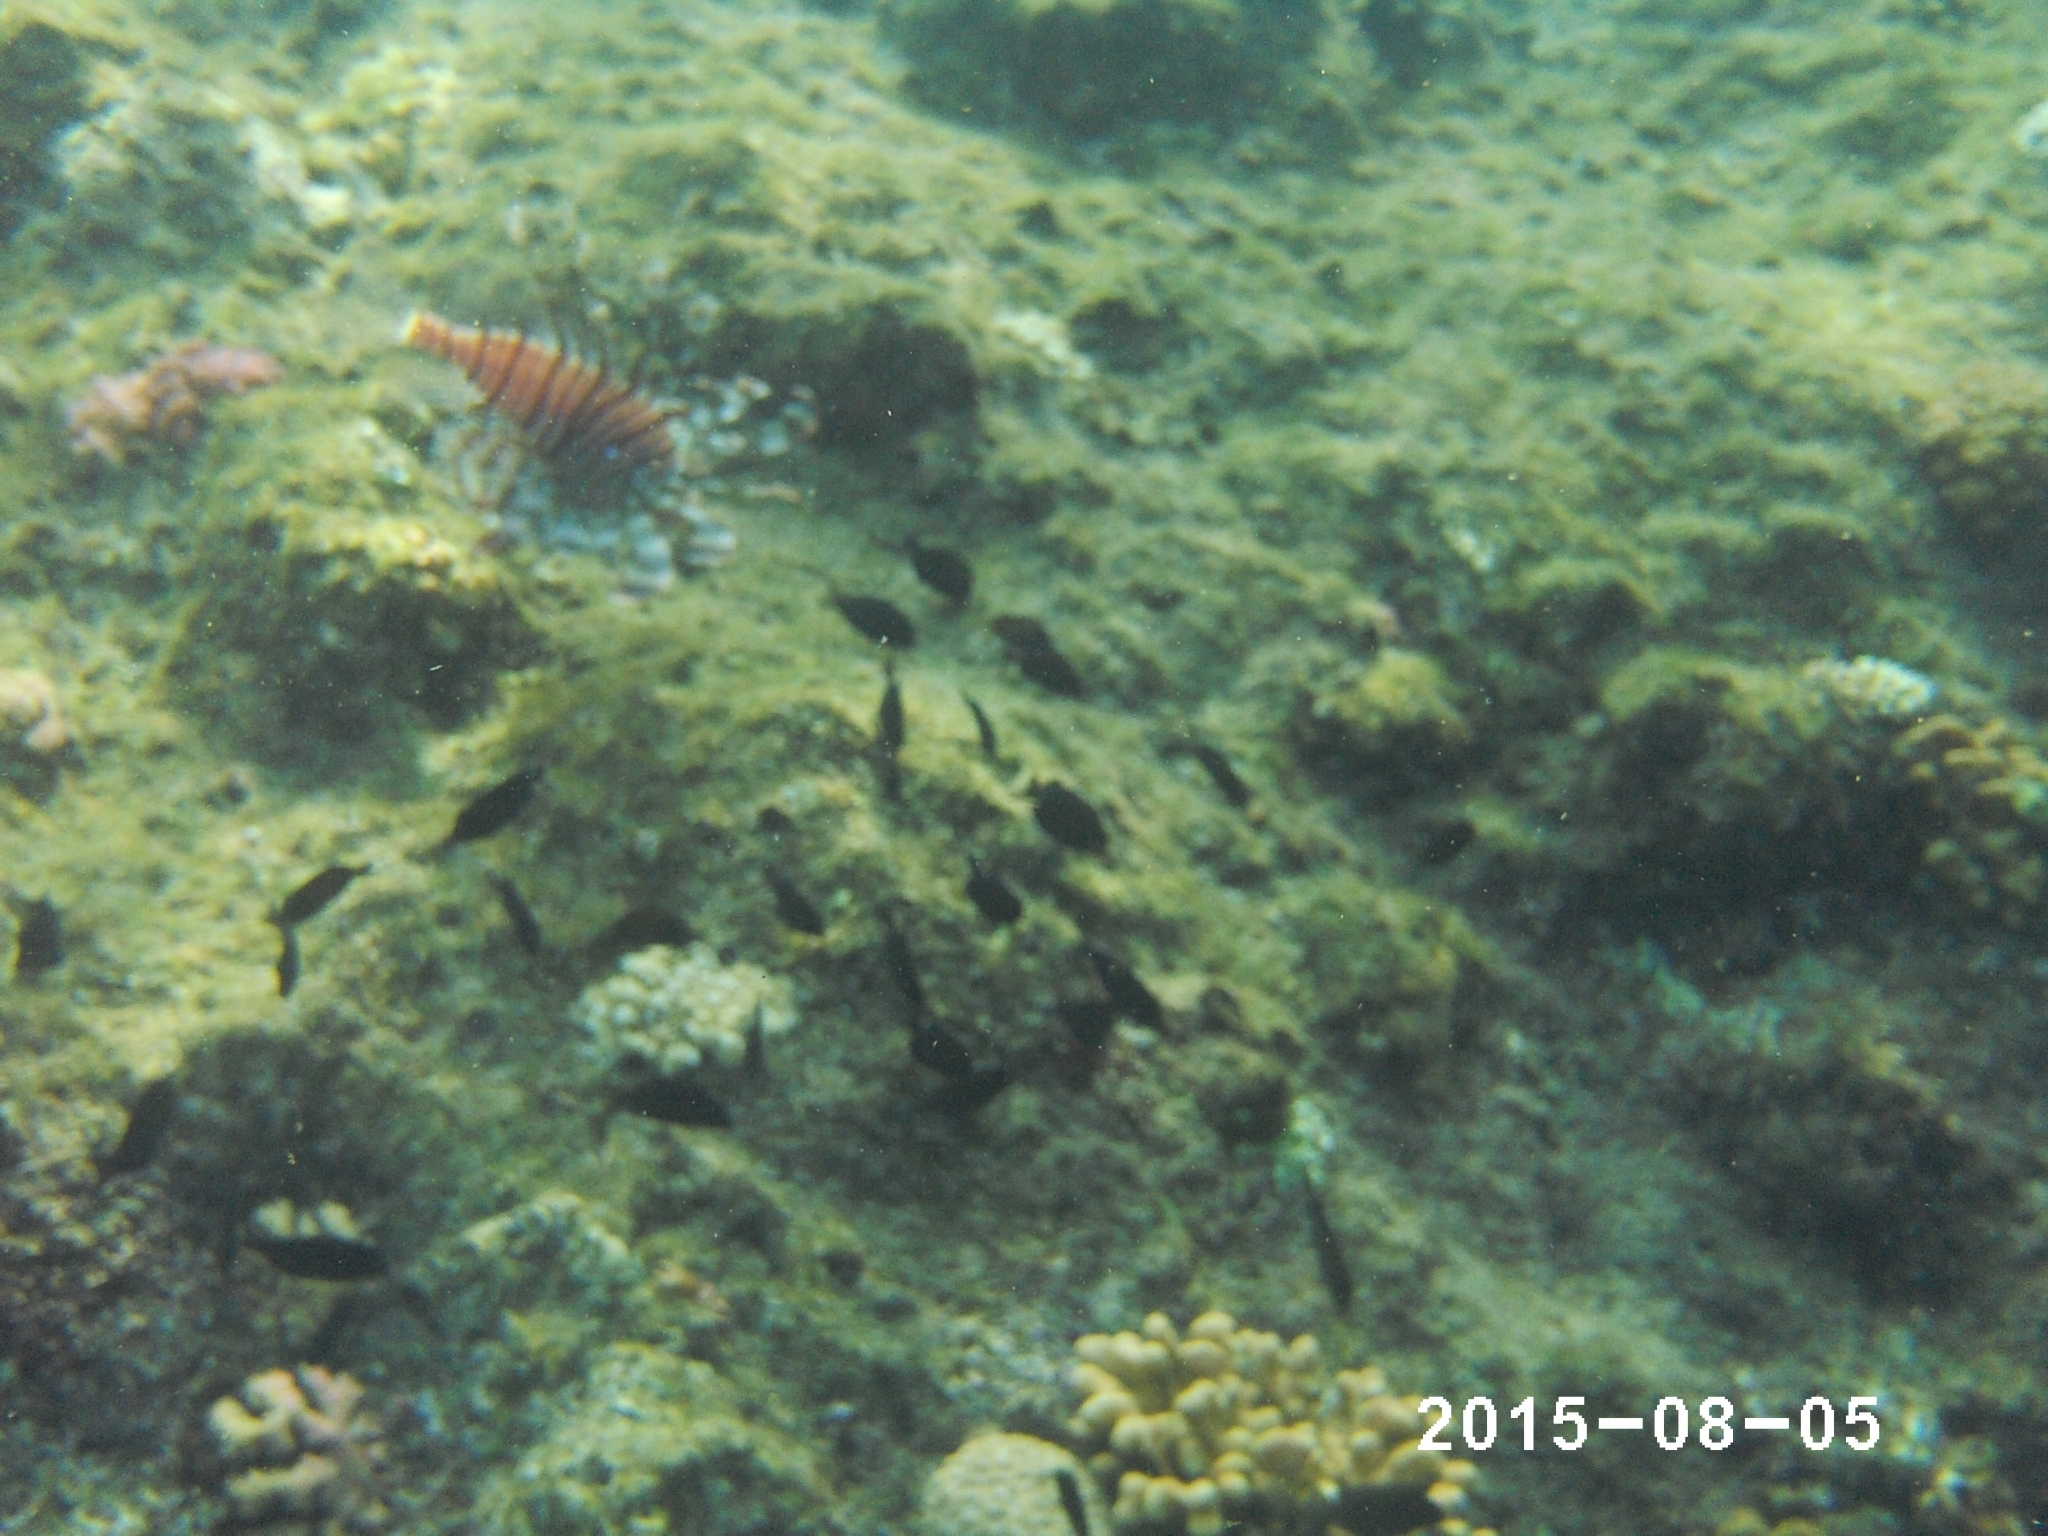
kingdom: Animalia
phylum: Chordata
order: Scorpaeniformes
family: Scorpaenidae
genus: Pterois
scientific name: Pterois miles
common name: Devil firefish
